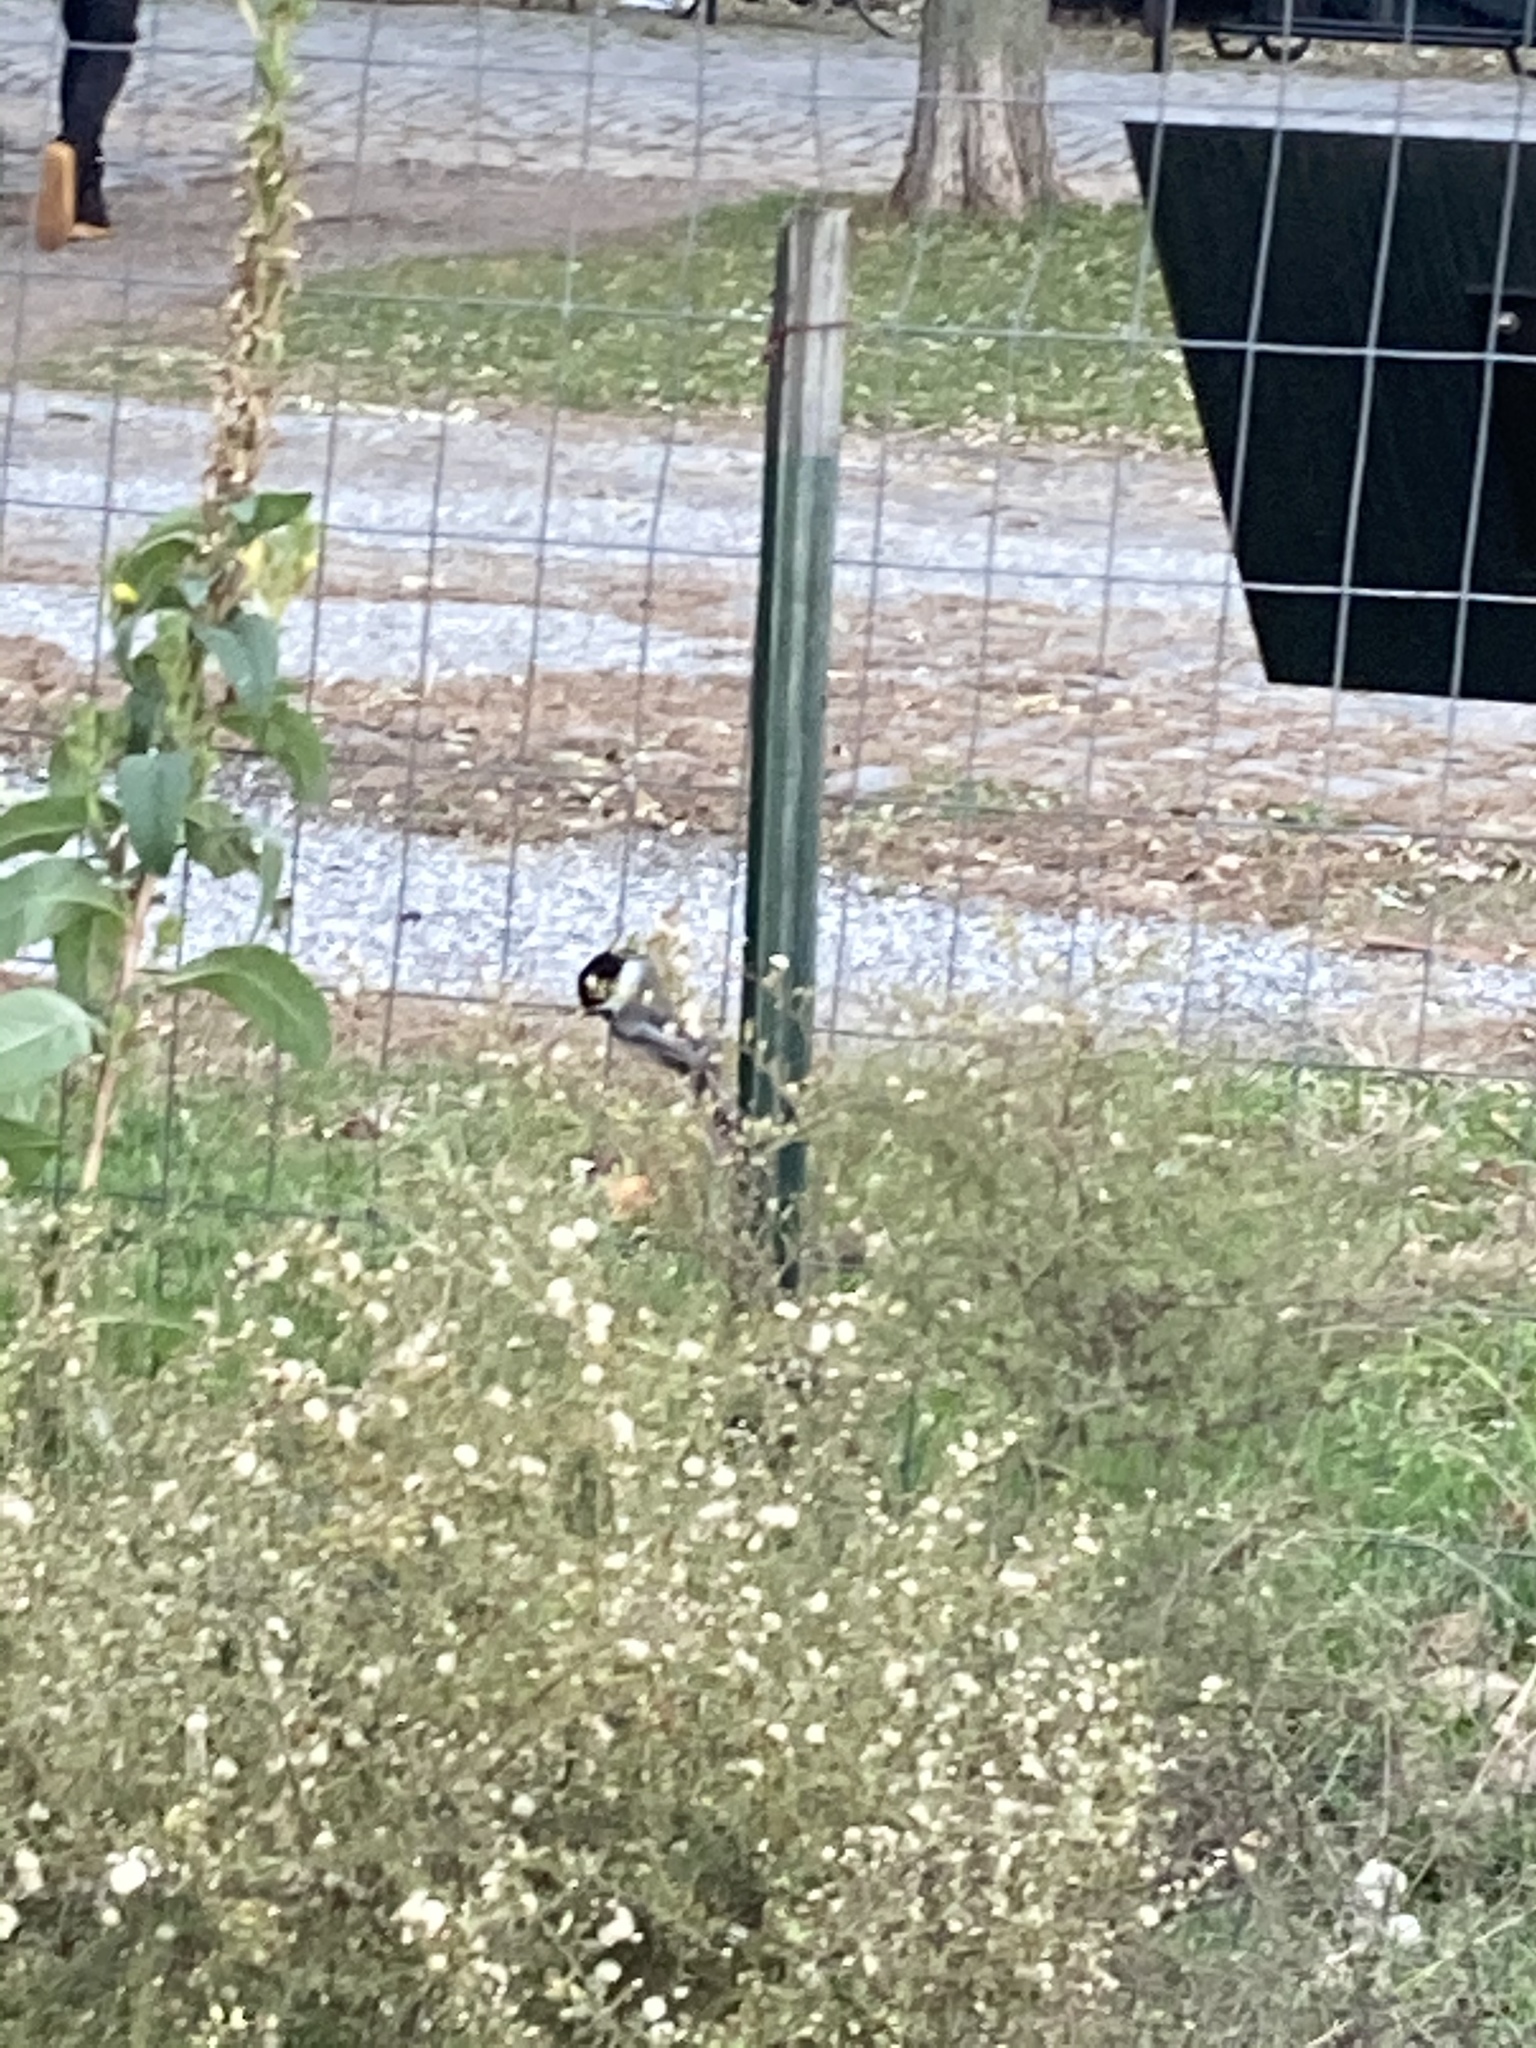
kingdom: Animalia
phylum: Chordata
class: Aves
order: Passeriformes
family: Paridae
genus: Poecile
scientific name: Poecile atricapillus
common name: Black-capped chickadee
